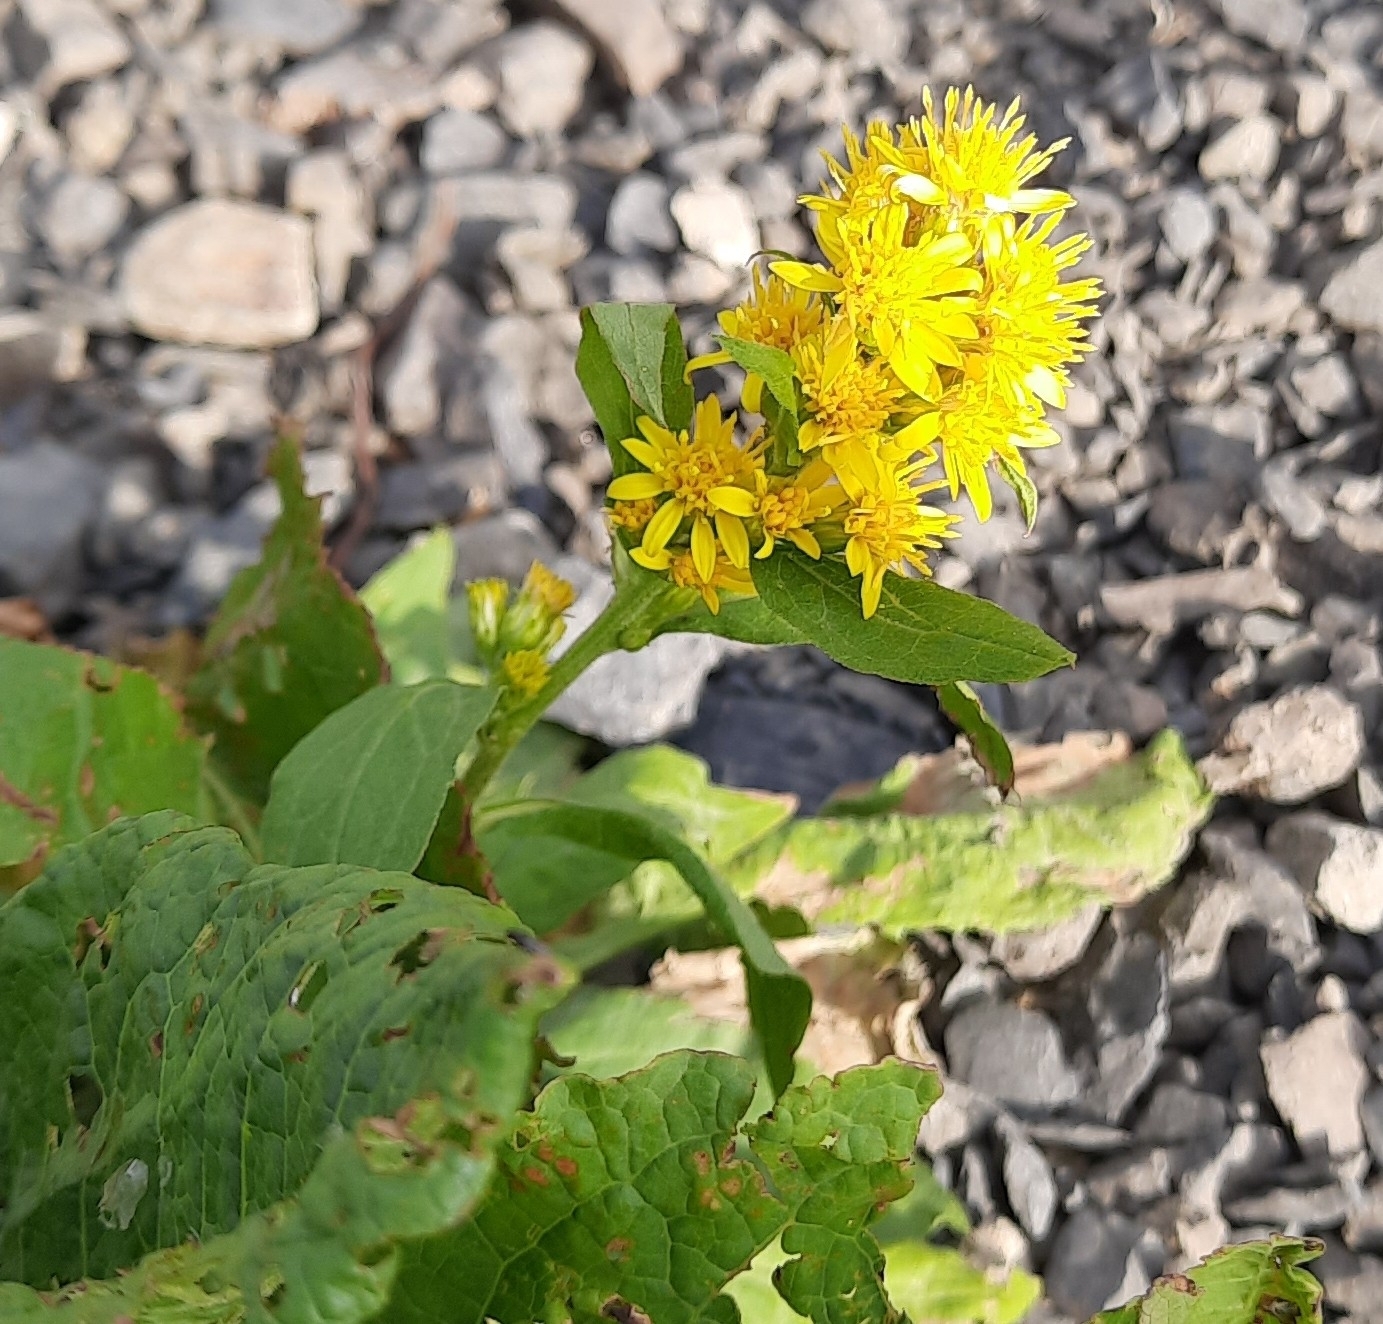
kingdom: Plantae
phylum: Tracheophyta
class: Magnoliopsida
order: Asterales
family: Asteraceae
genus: Solidago
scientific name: Solidago virgaurea
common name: Goldenrod
